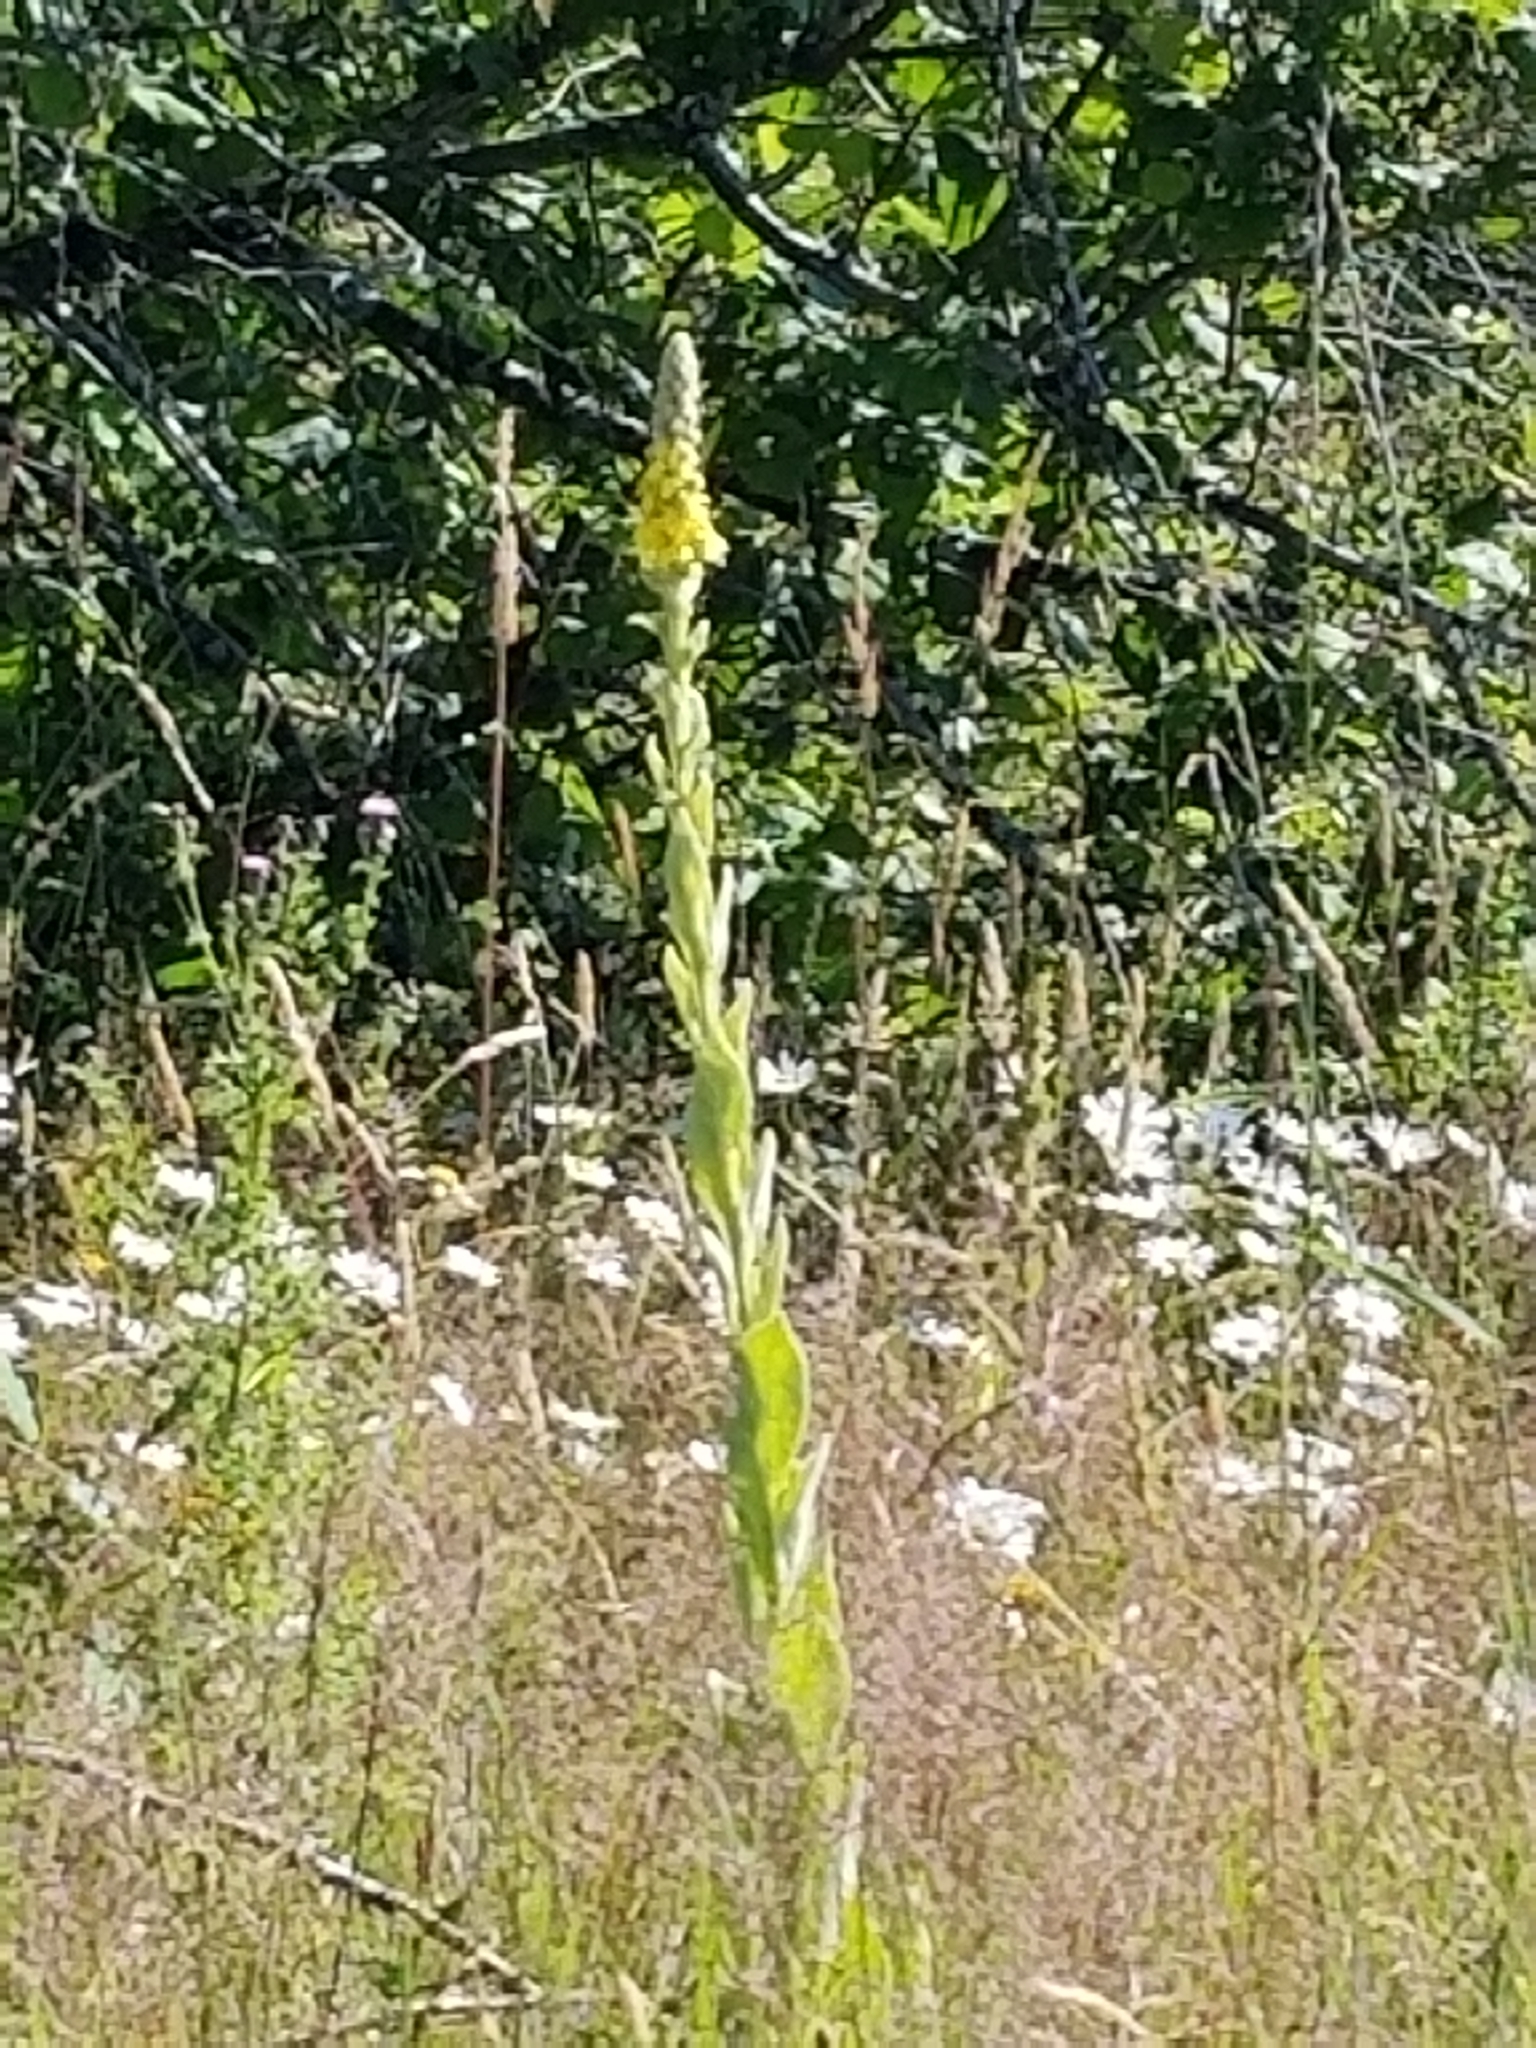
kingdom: Plantae
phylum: Tracheophyta
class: Magnoliopsida
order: Lamiales
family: Scrophulariaceae
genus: Verbascum
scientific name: Verbascum thapsus
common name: Common mullein
